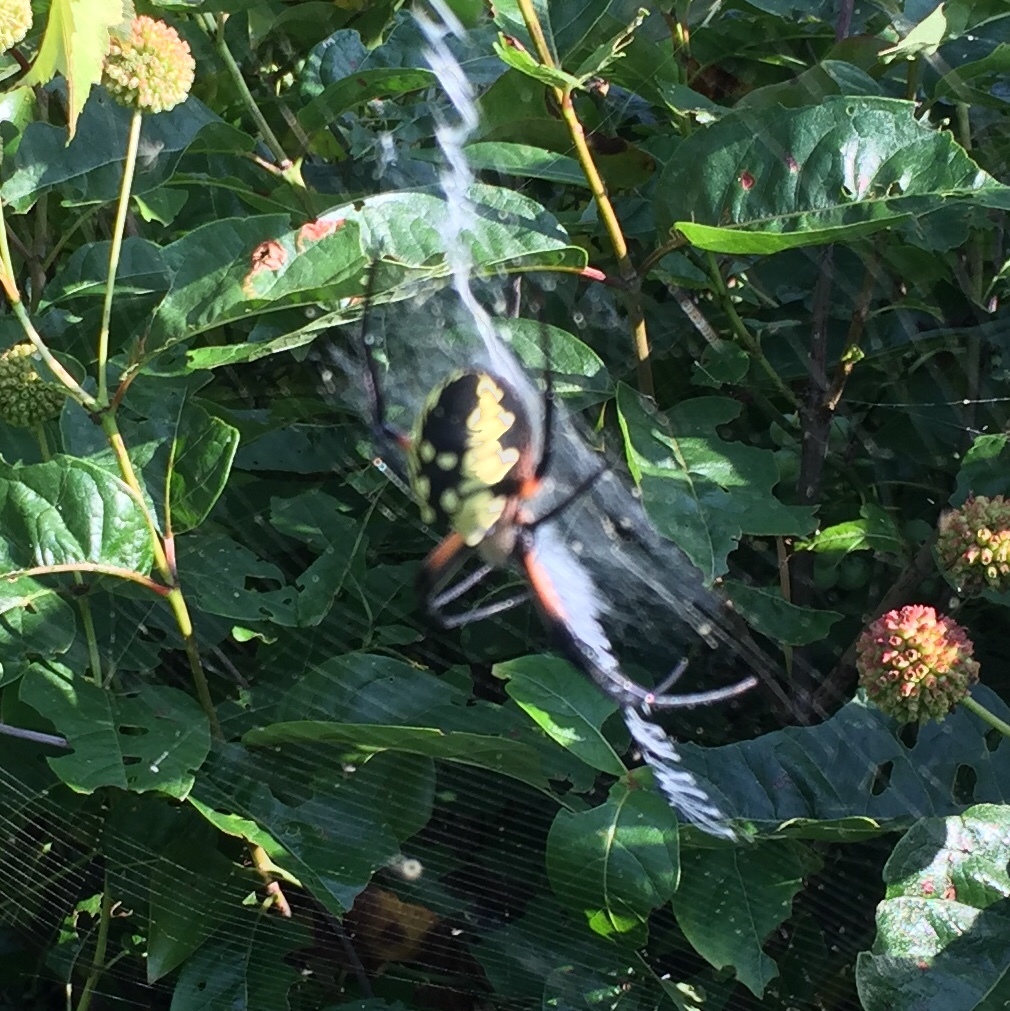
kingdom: Animalia
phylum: Arthropoda
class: Arachnida
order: Araneae
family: Araneidae
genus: Argiope
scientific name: Argiope aurantia
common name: Orb weavers
